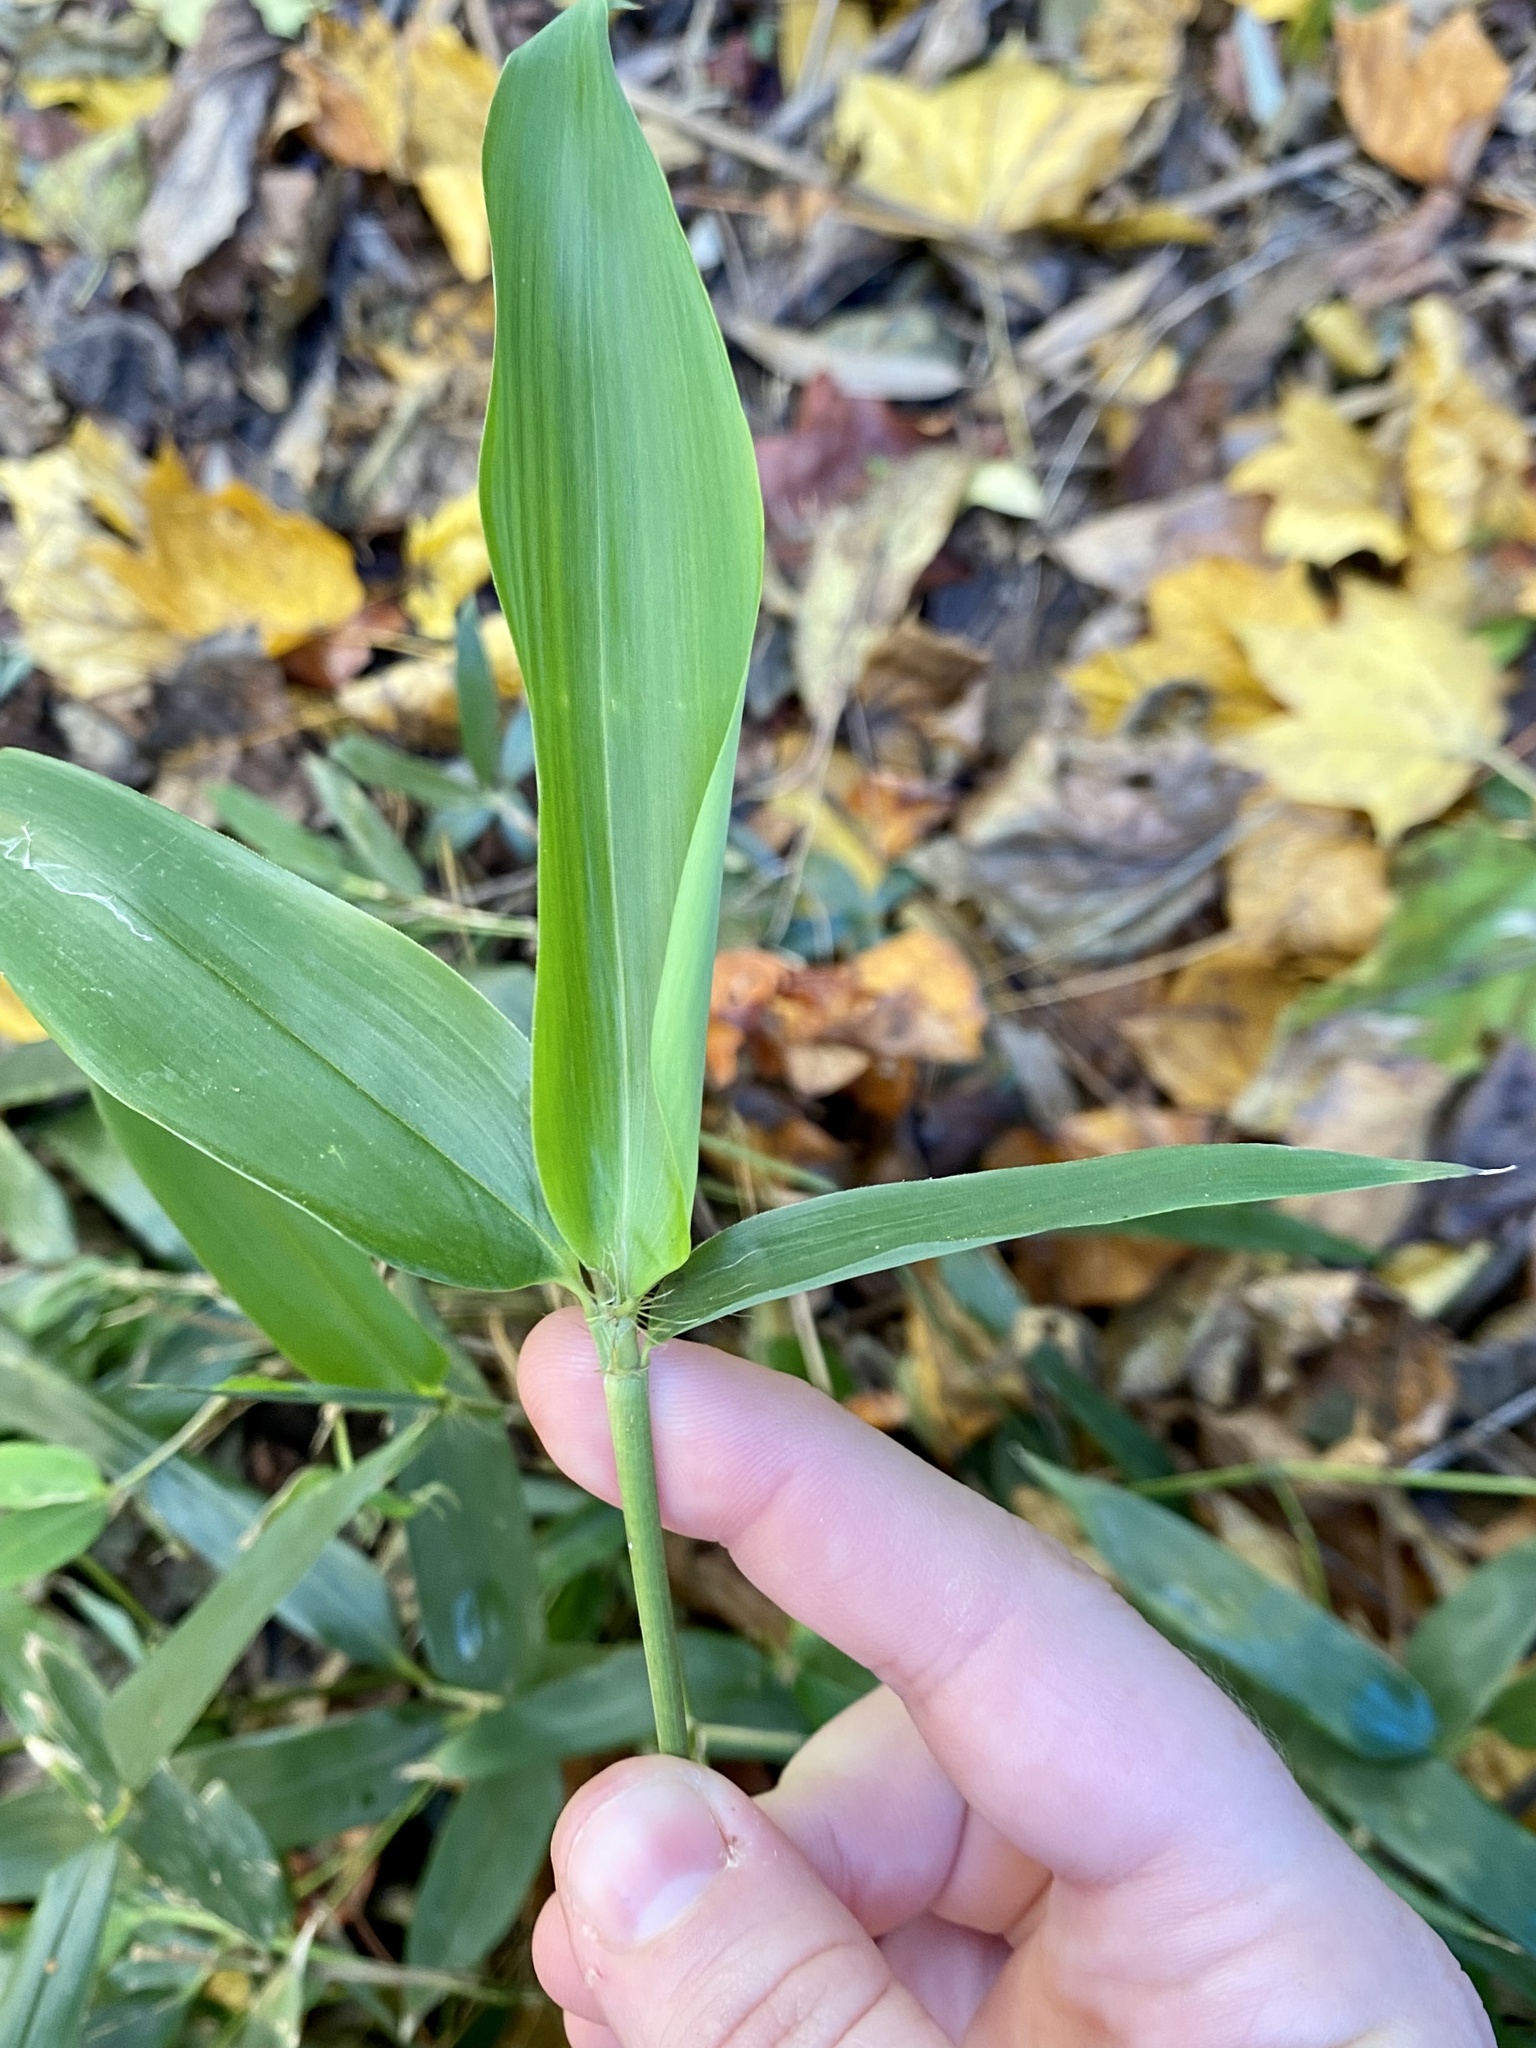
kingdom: Plantae
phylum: Tracheophyta
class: Liliopsida
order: Poales
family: Poaceae
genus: Phyllostachys
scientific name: Phyllostachys aureosulcata
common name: Yellow groove bamboo
